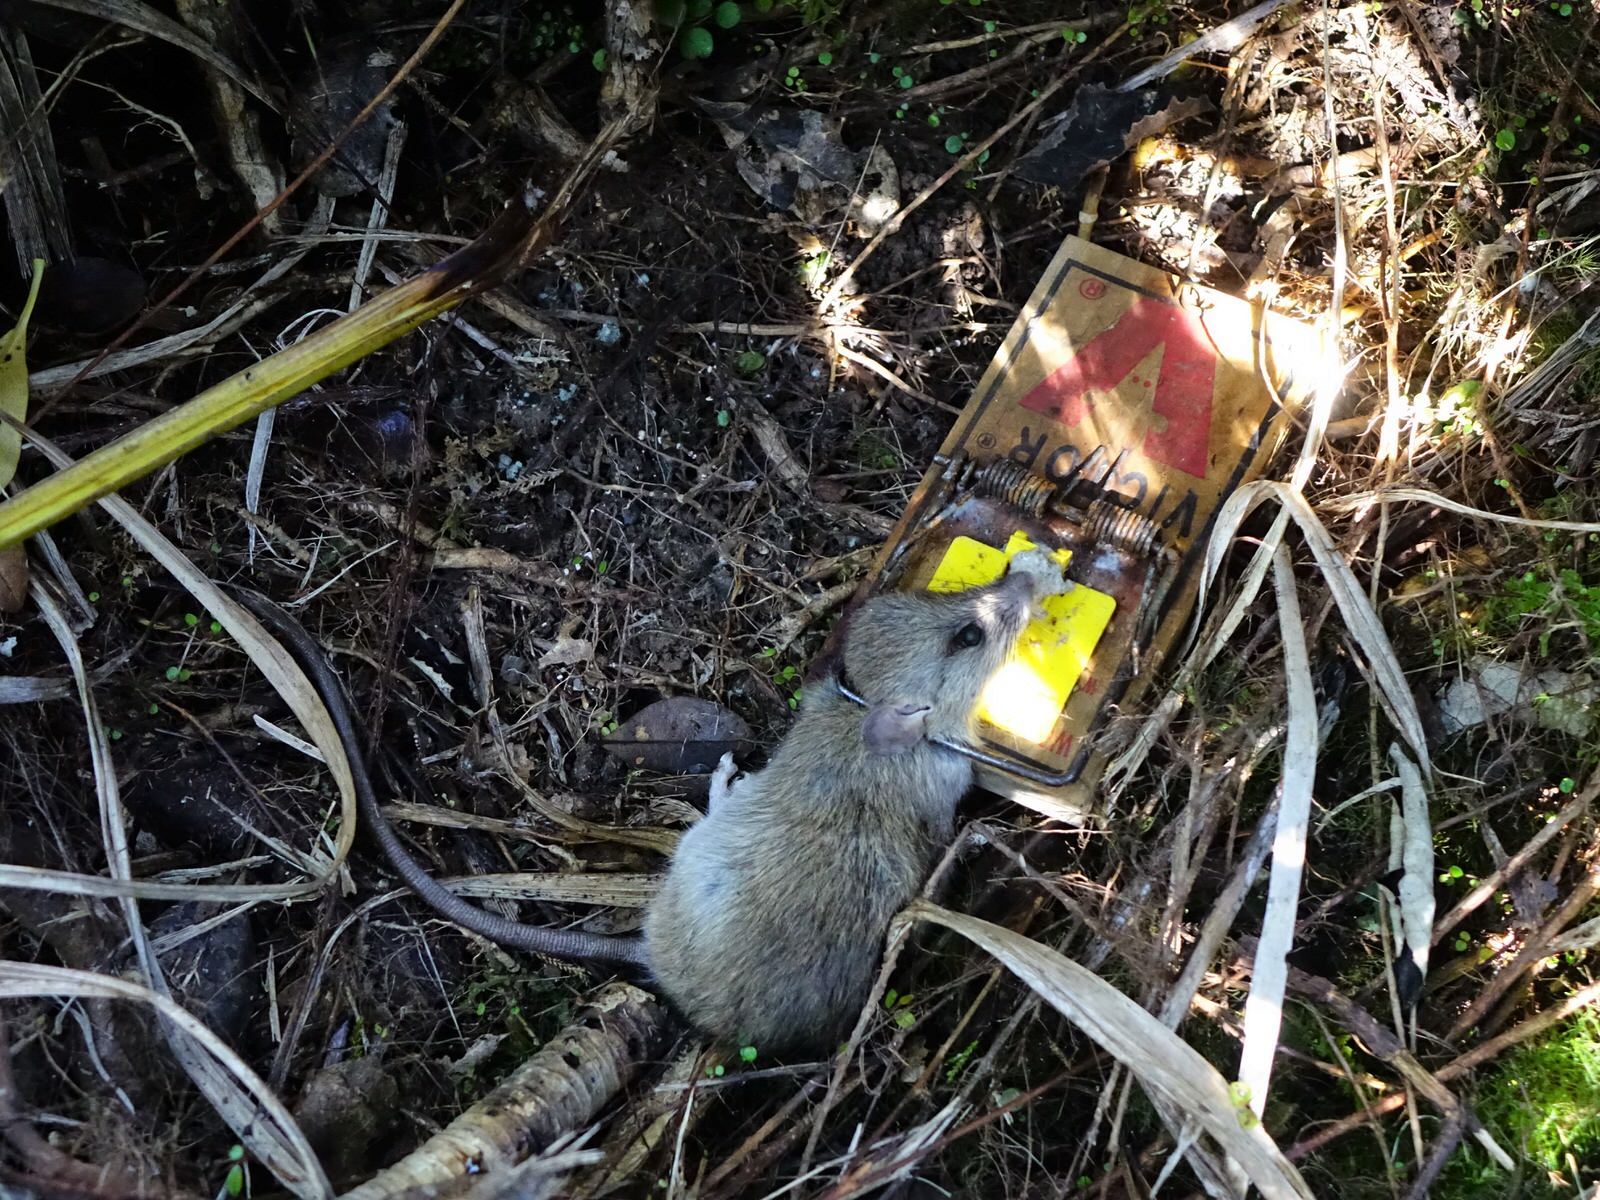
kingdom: Animalia
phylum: Chordata
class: Mammalia
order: Rodentia
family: Muridae
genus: Rattus
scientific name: Rattus rattus
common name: Black rat
